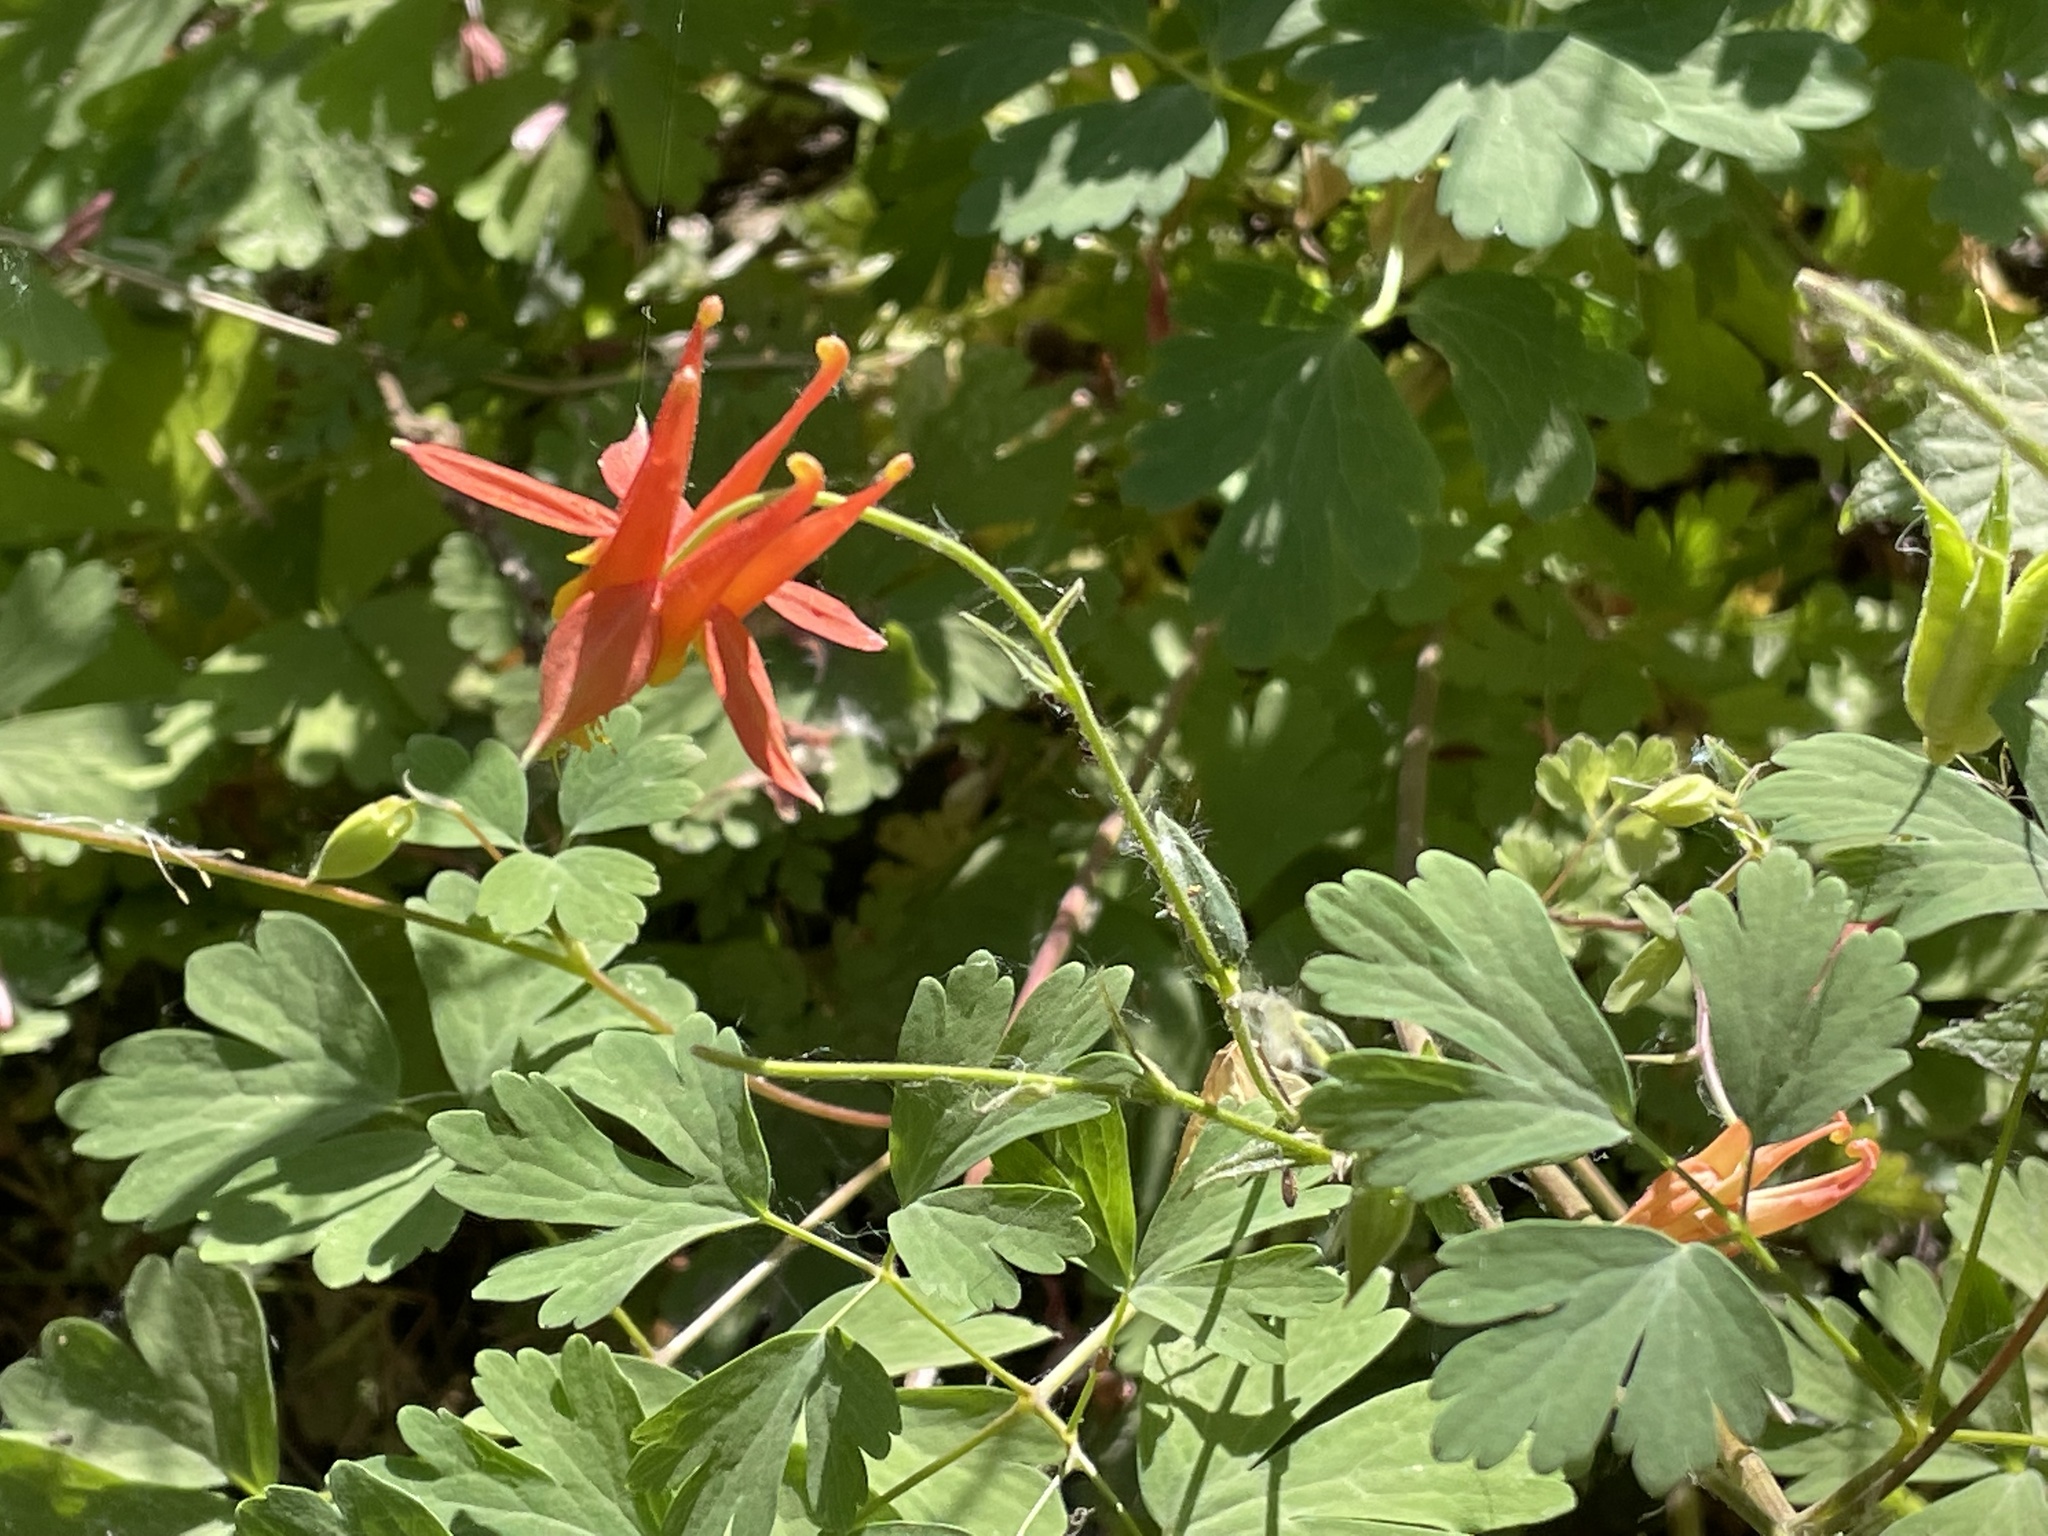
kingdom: Plantae
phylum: Tracheophyta
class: Magnoliopsida
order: Ranunculales
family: Ranunculaceae
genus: Aquilegia
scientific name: Aquilegia formosa
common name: Sitka columbine
